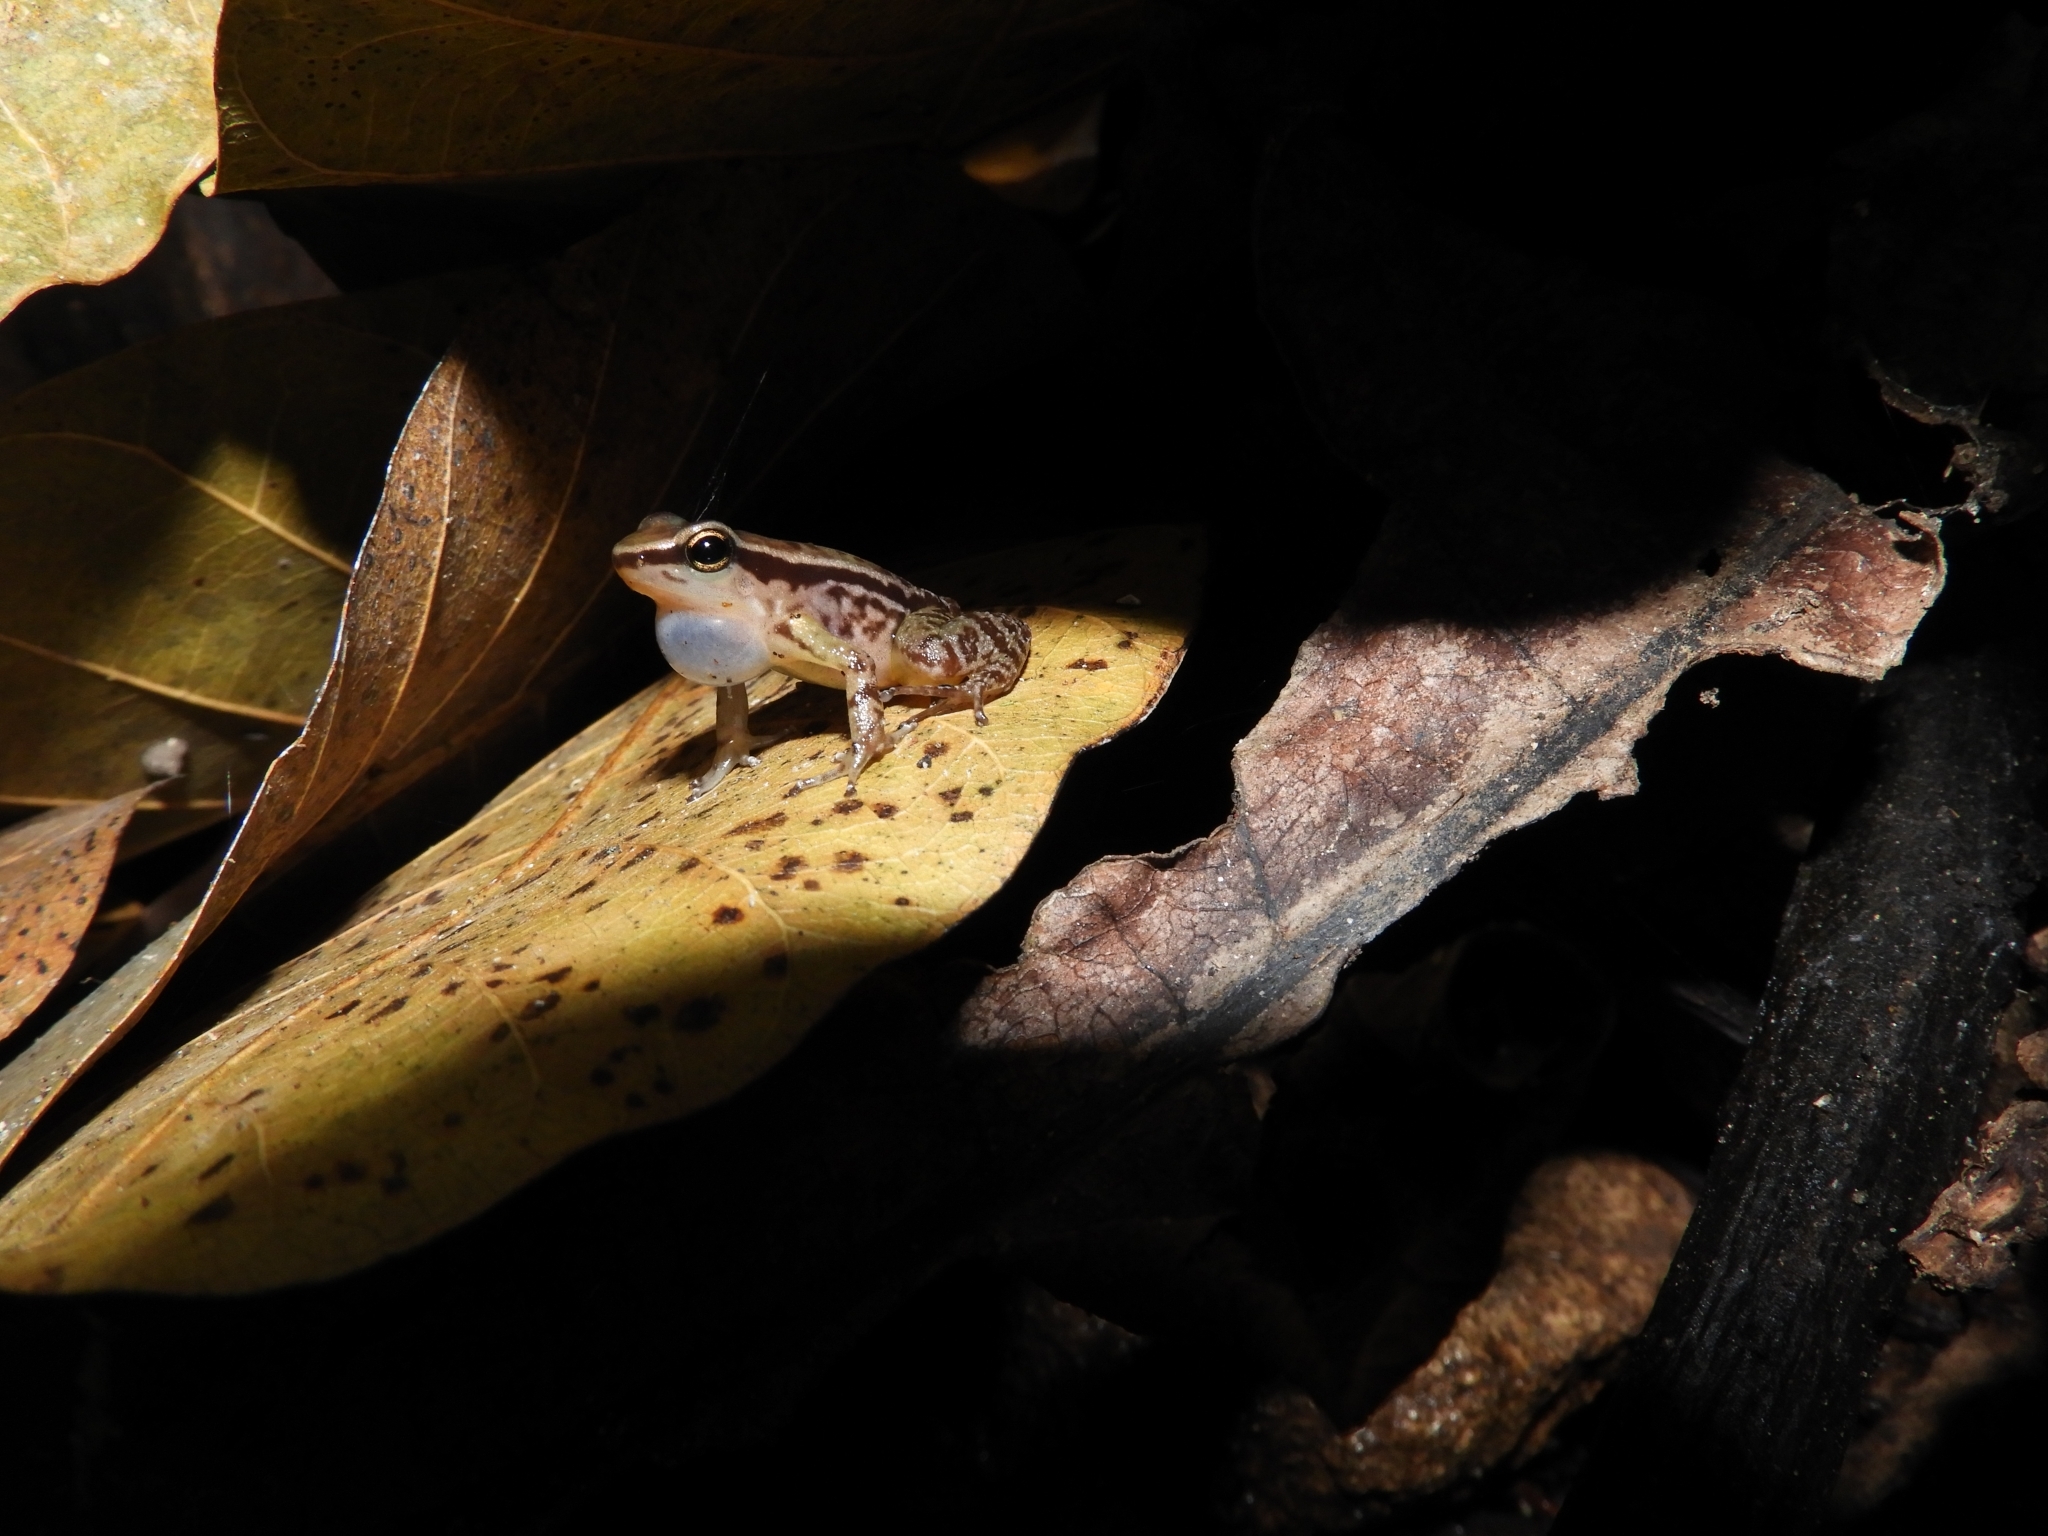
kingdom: Animalia
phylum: Chordata
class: Amphibia
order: Anura
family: Dendrobatidae
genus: Colostethus
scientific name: Colostethus ruthveni
